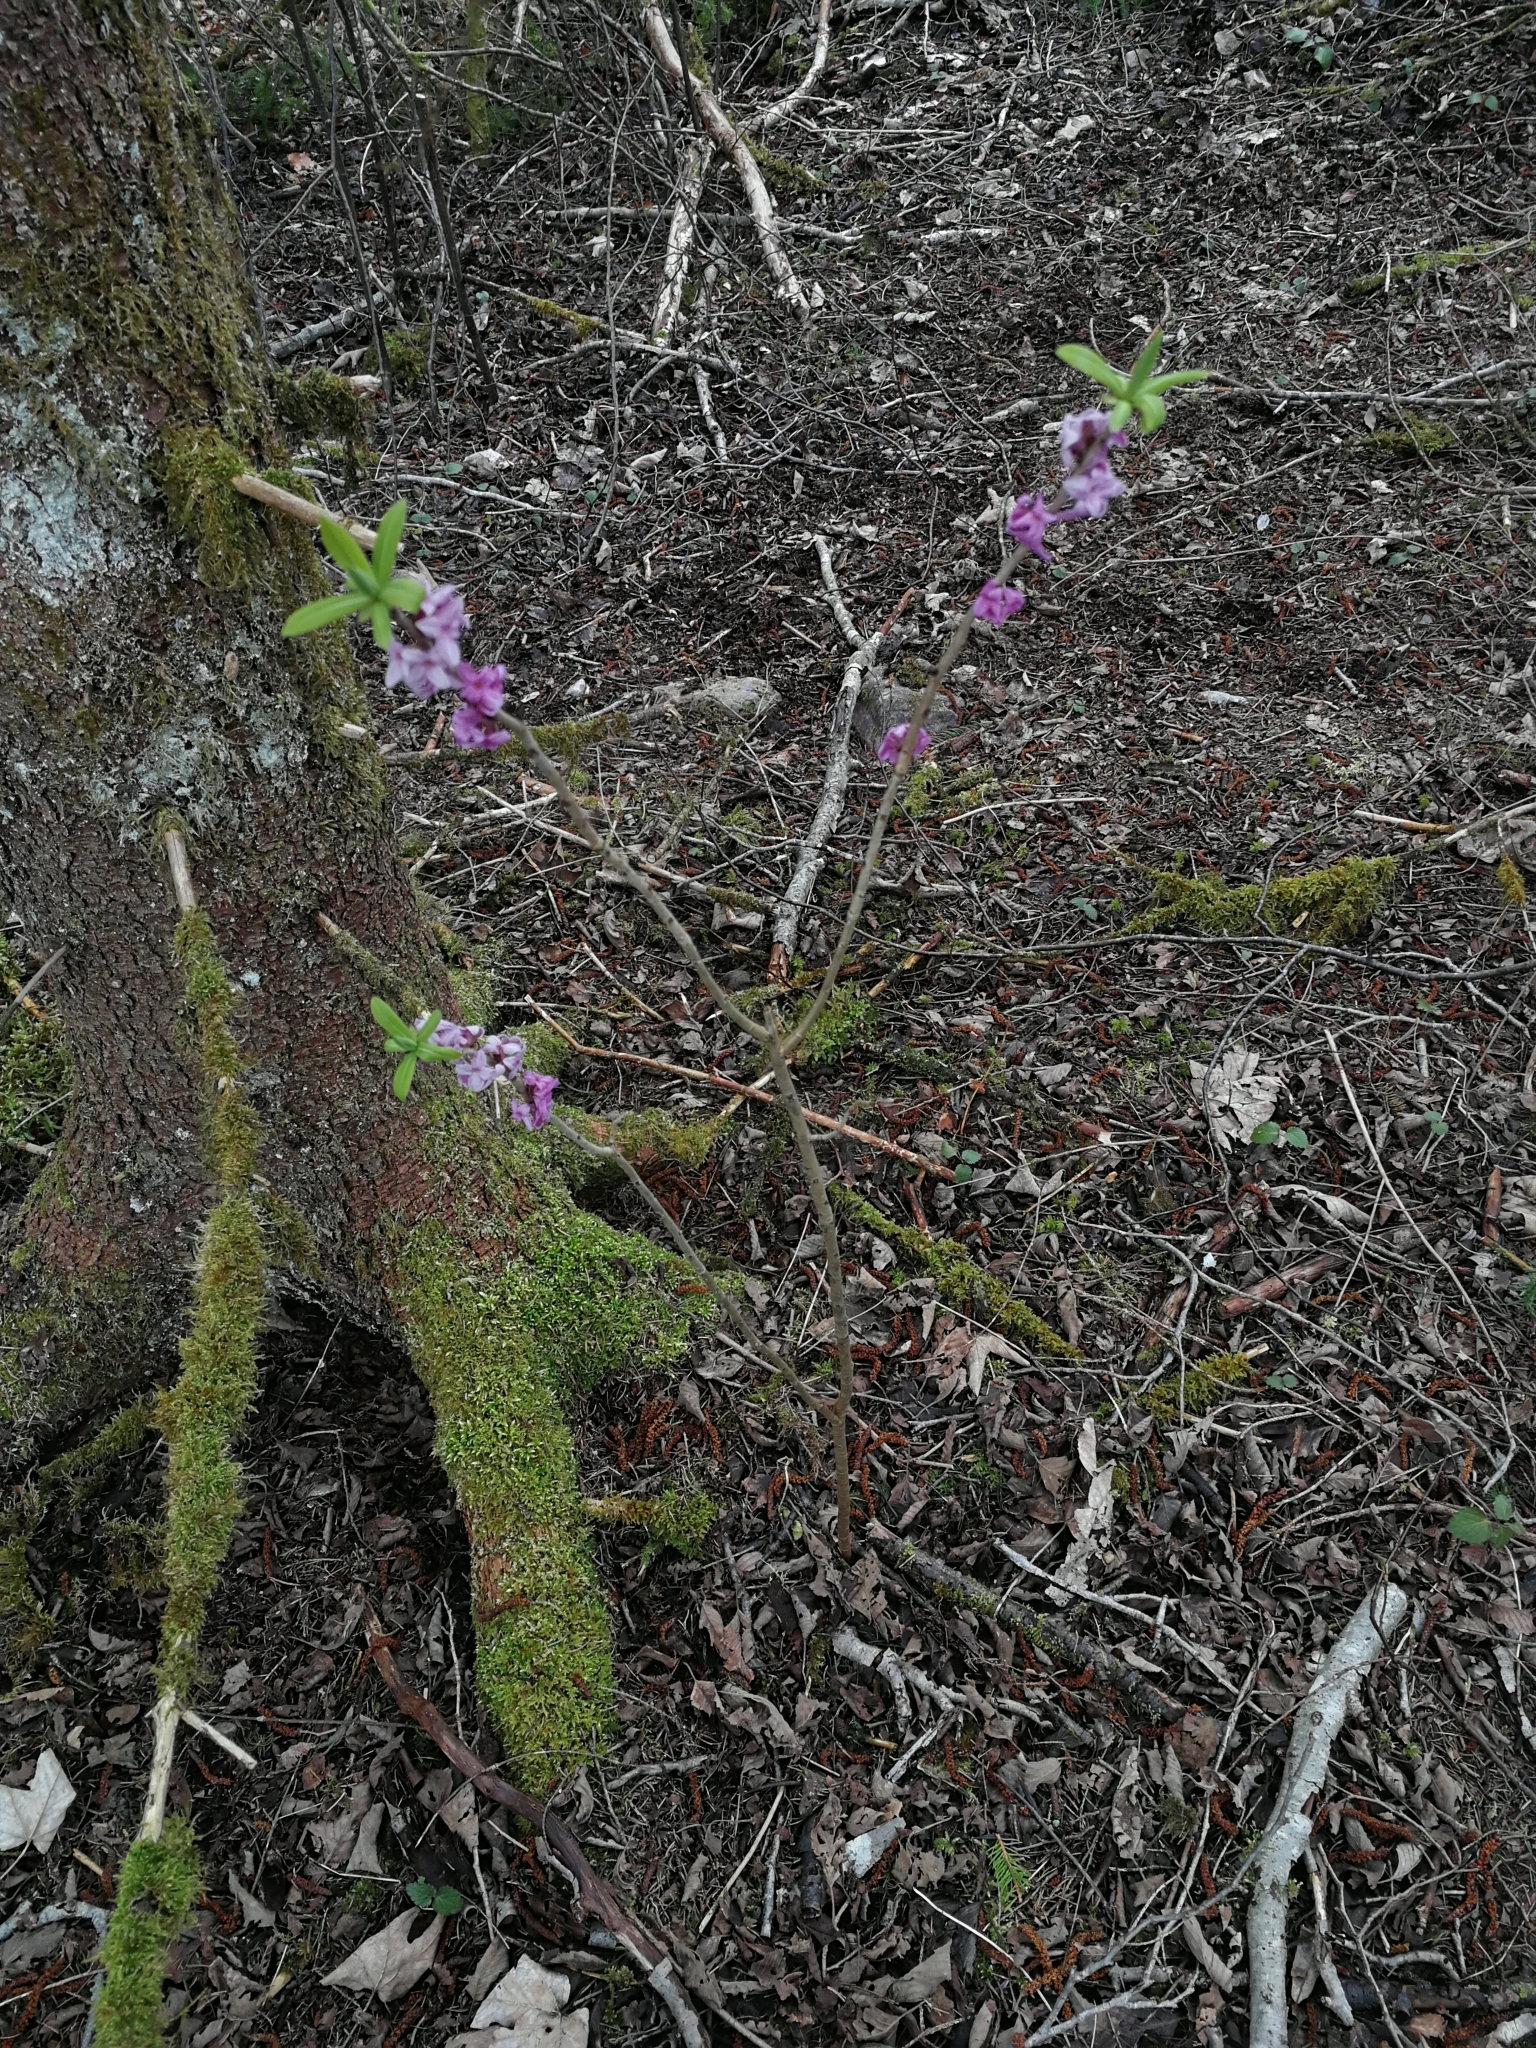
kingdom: Plantae
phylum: Tracheophyta
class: Magnoliopsida
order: Malvales
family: Thymelaeaceae
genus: Daphne
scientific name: Daphne mezereum
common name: Mezereon
